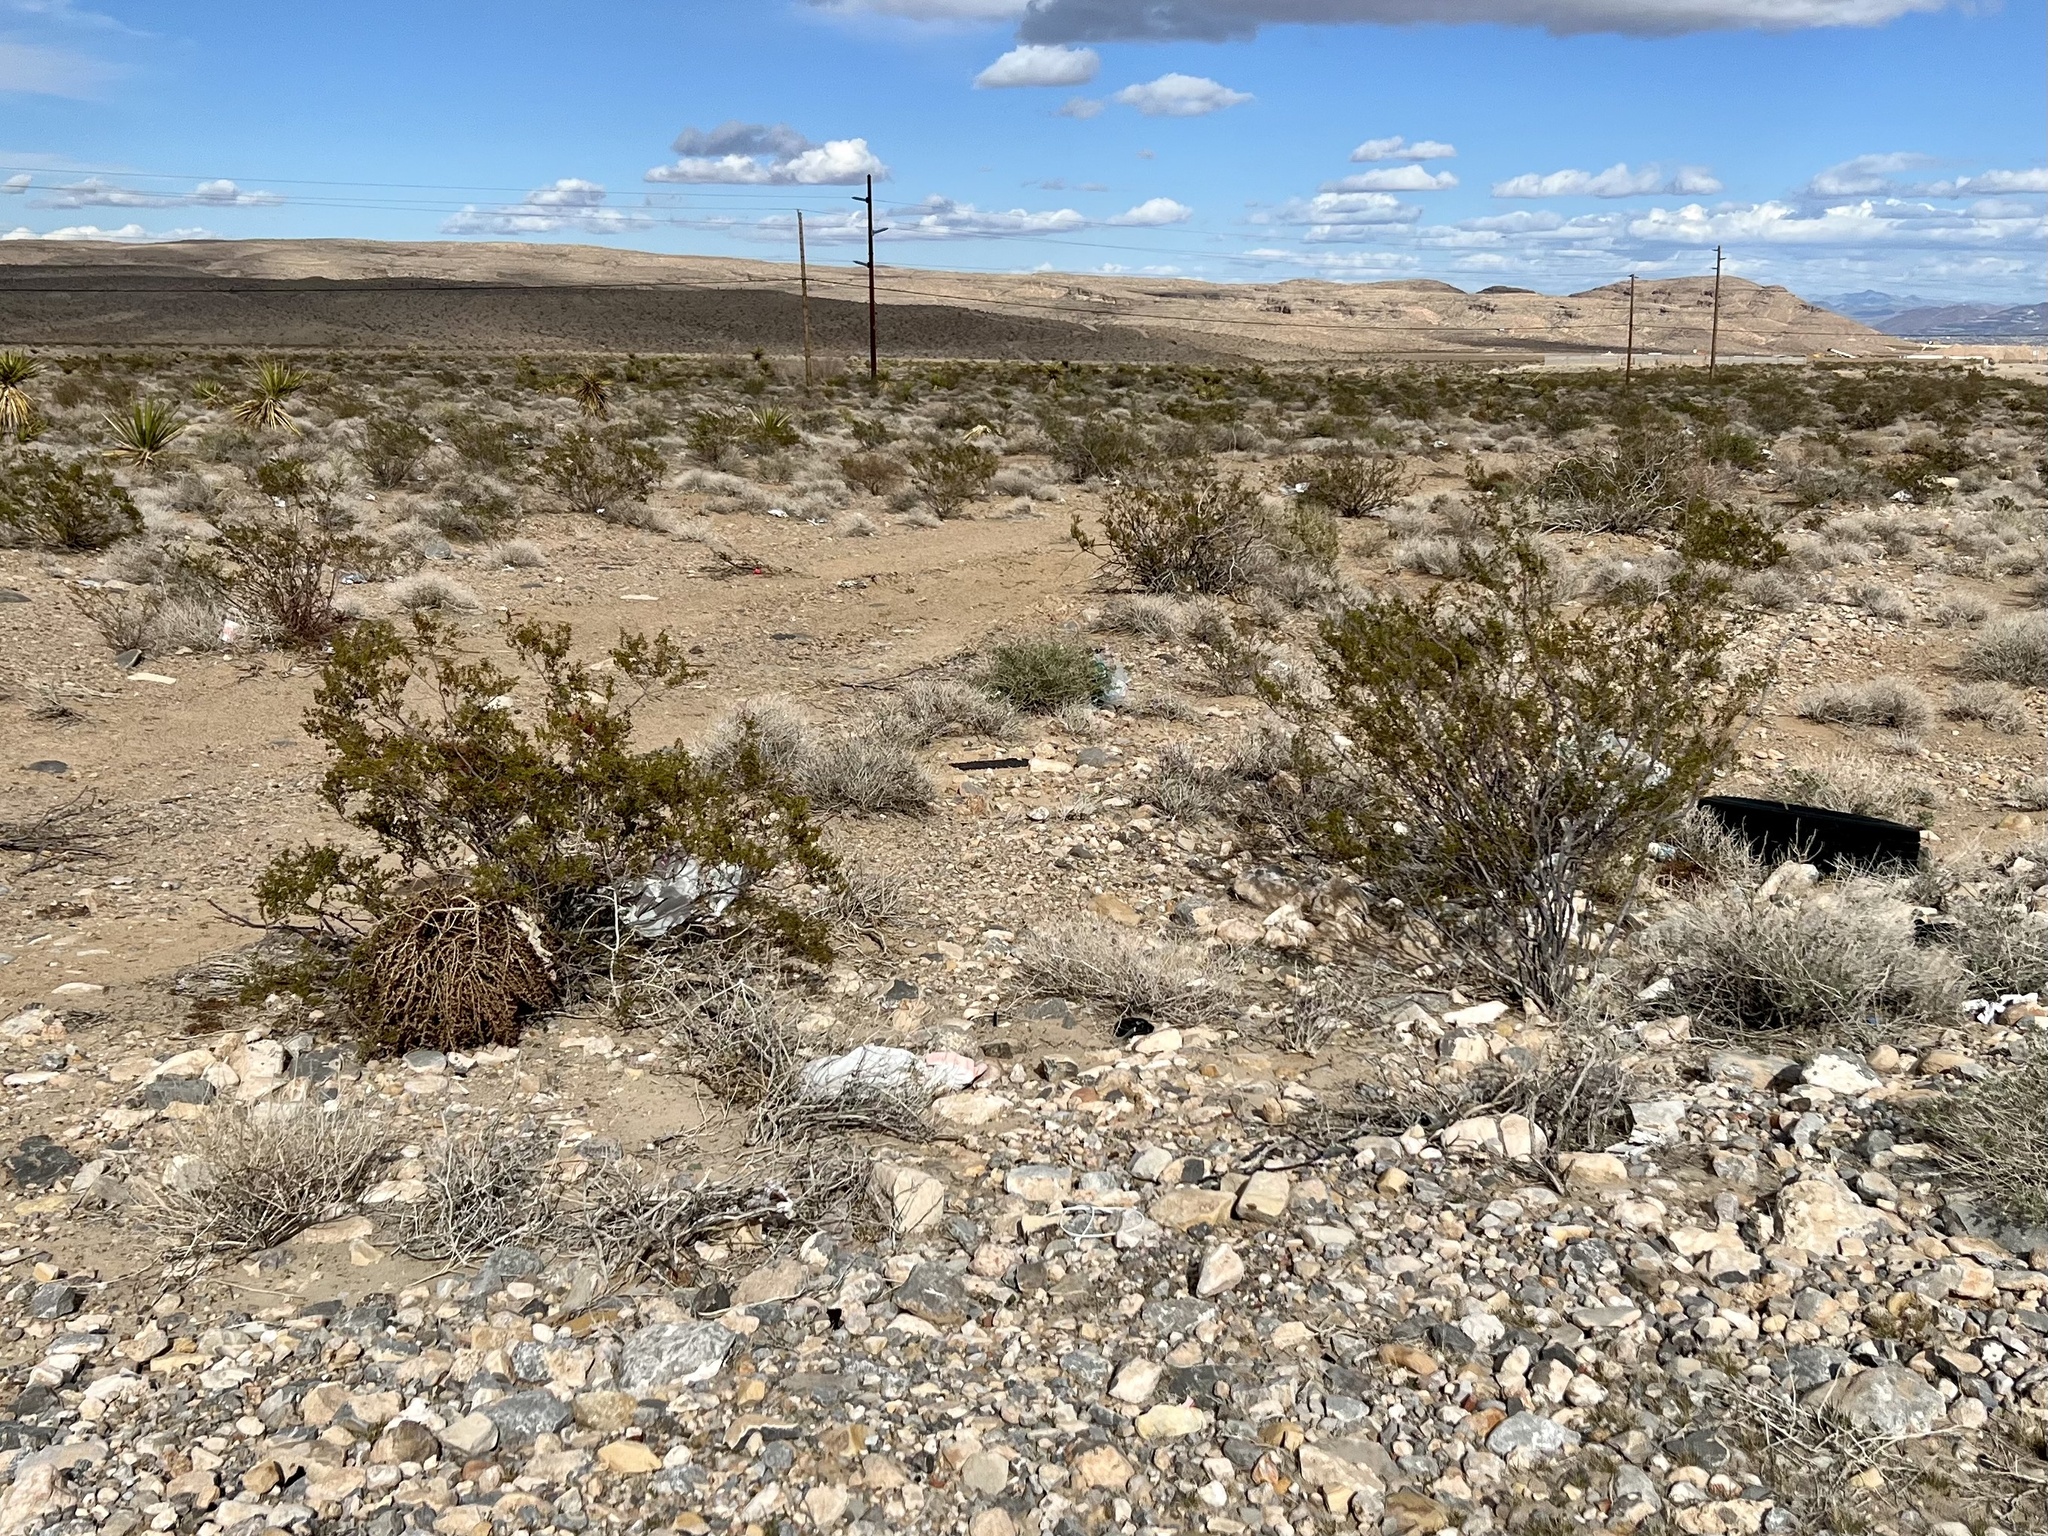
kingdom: Plantae
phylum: Tracheophyta
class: Magnoliopsida
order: Zygophyllales
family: Zygophyllaceae
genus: Larrea
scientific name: Larrea tridentata
